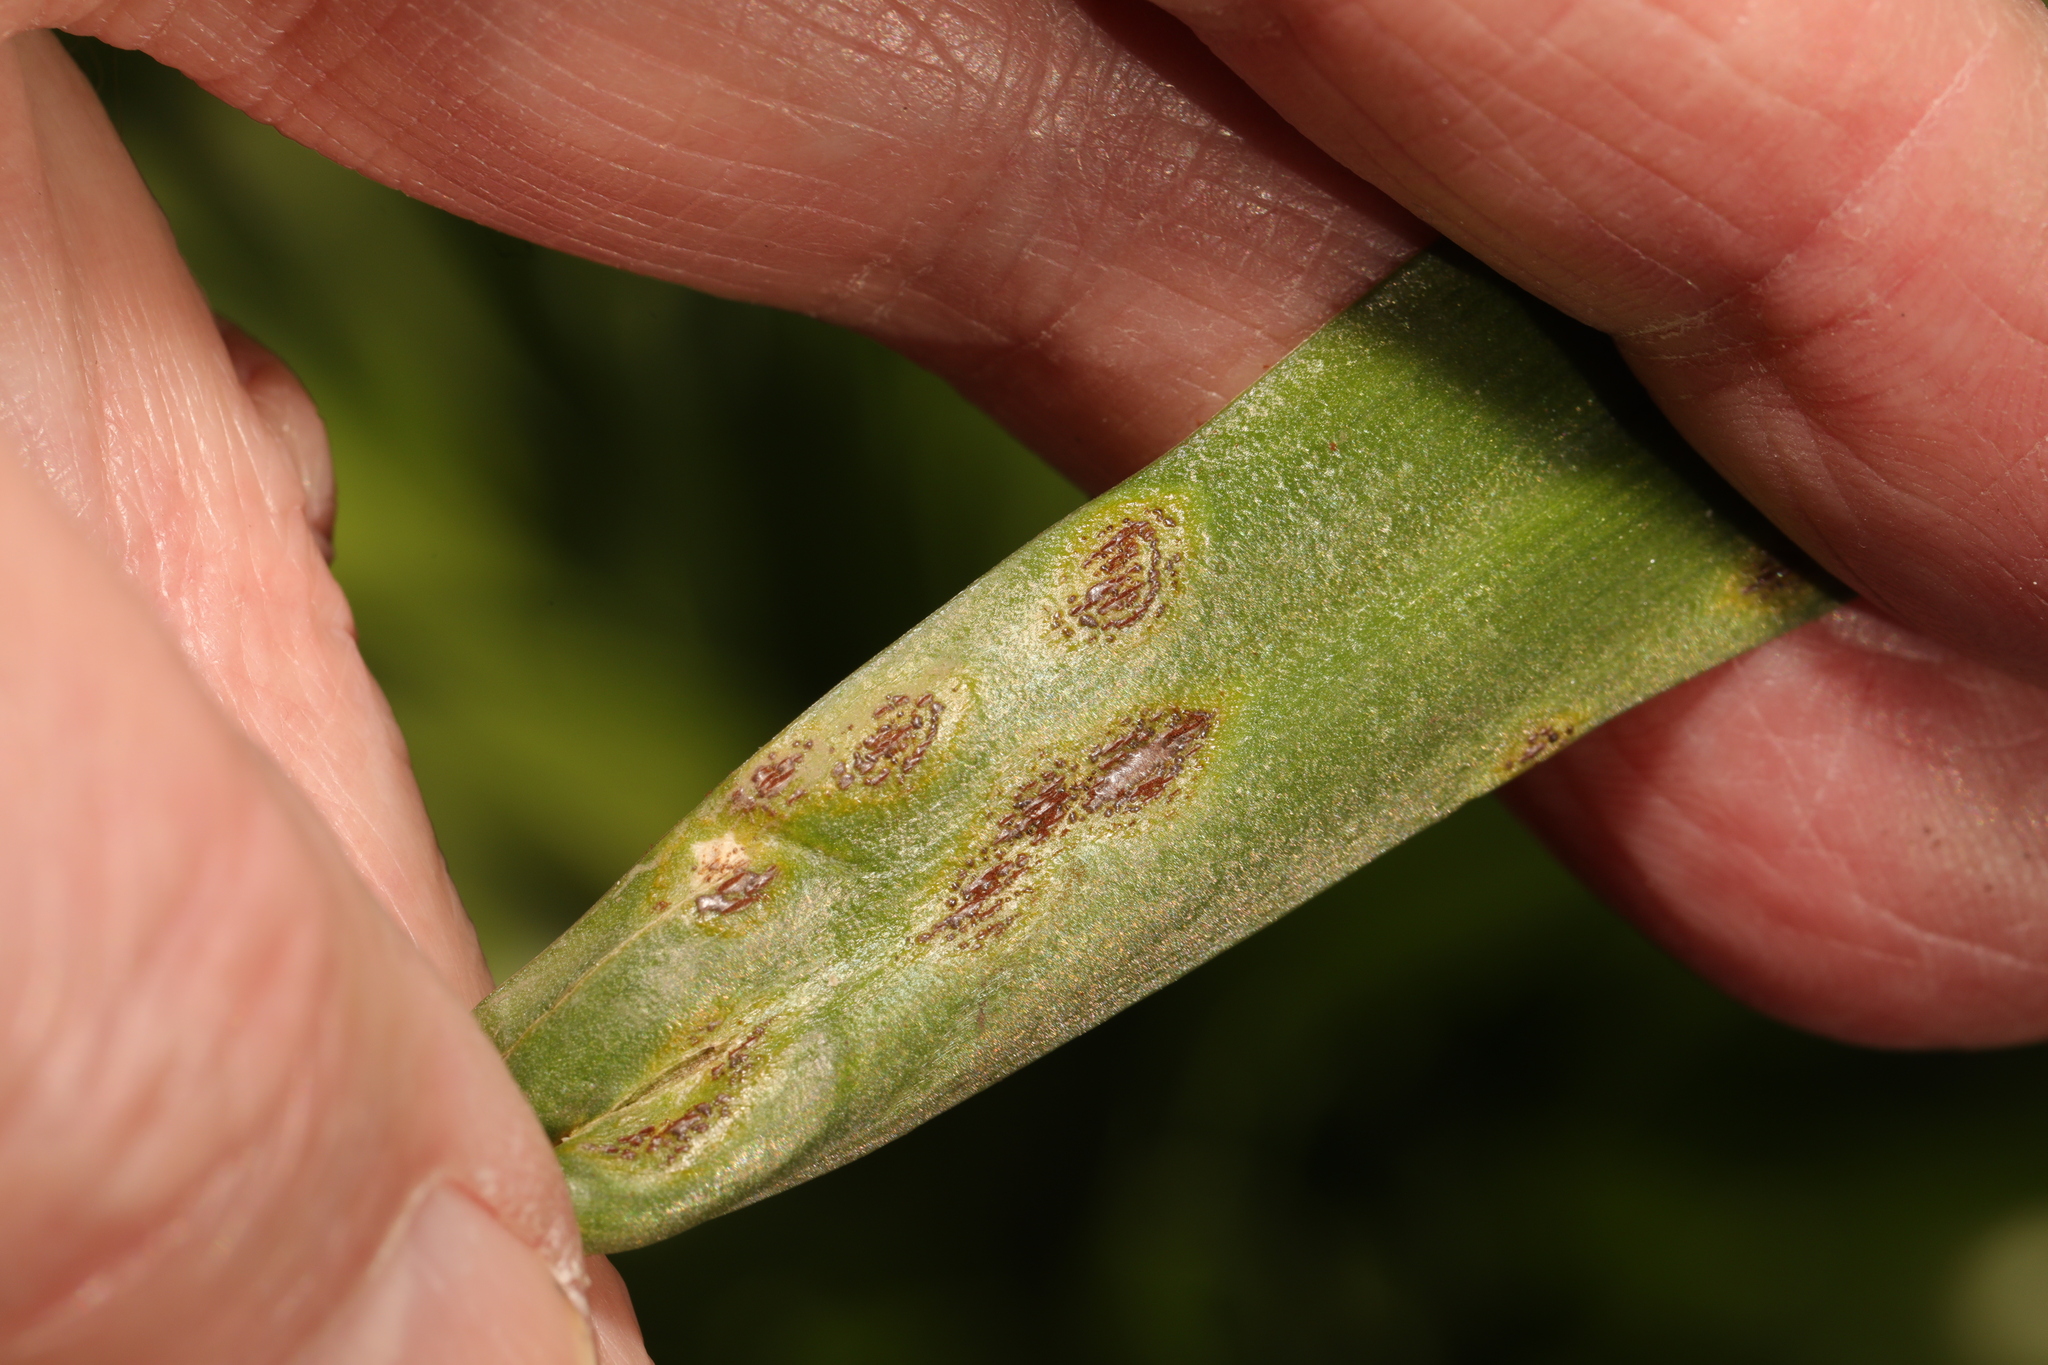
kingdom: Fungi
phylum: Basidiomycota
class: Pucciniomycetes
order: Pucciniales
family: Pucciniaceae
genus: Uromyces
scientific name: Uromyces hyacinthi
